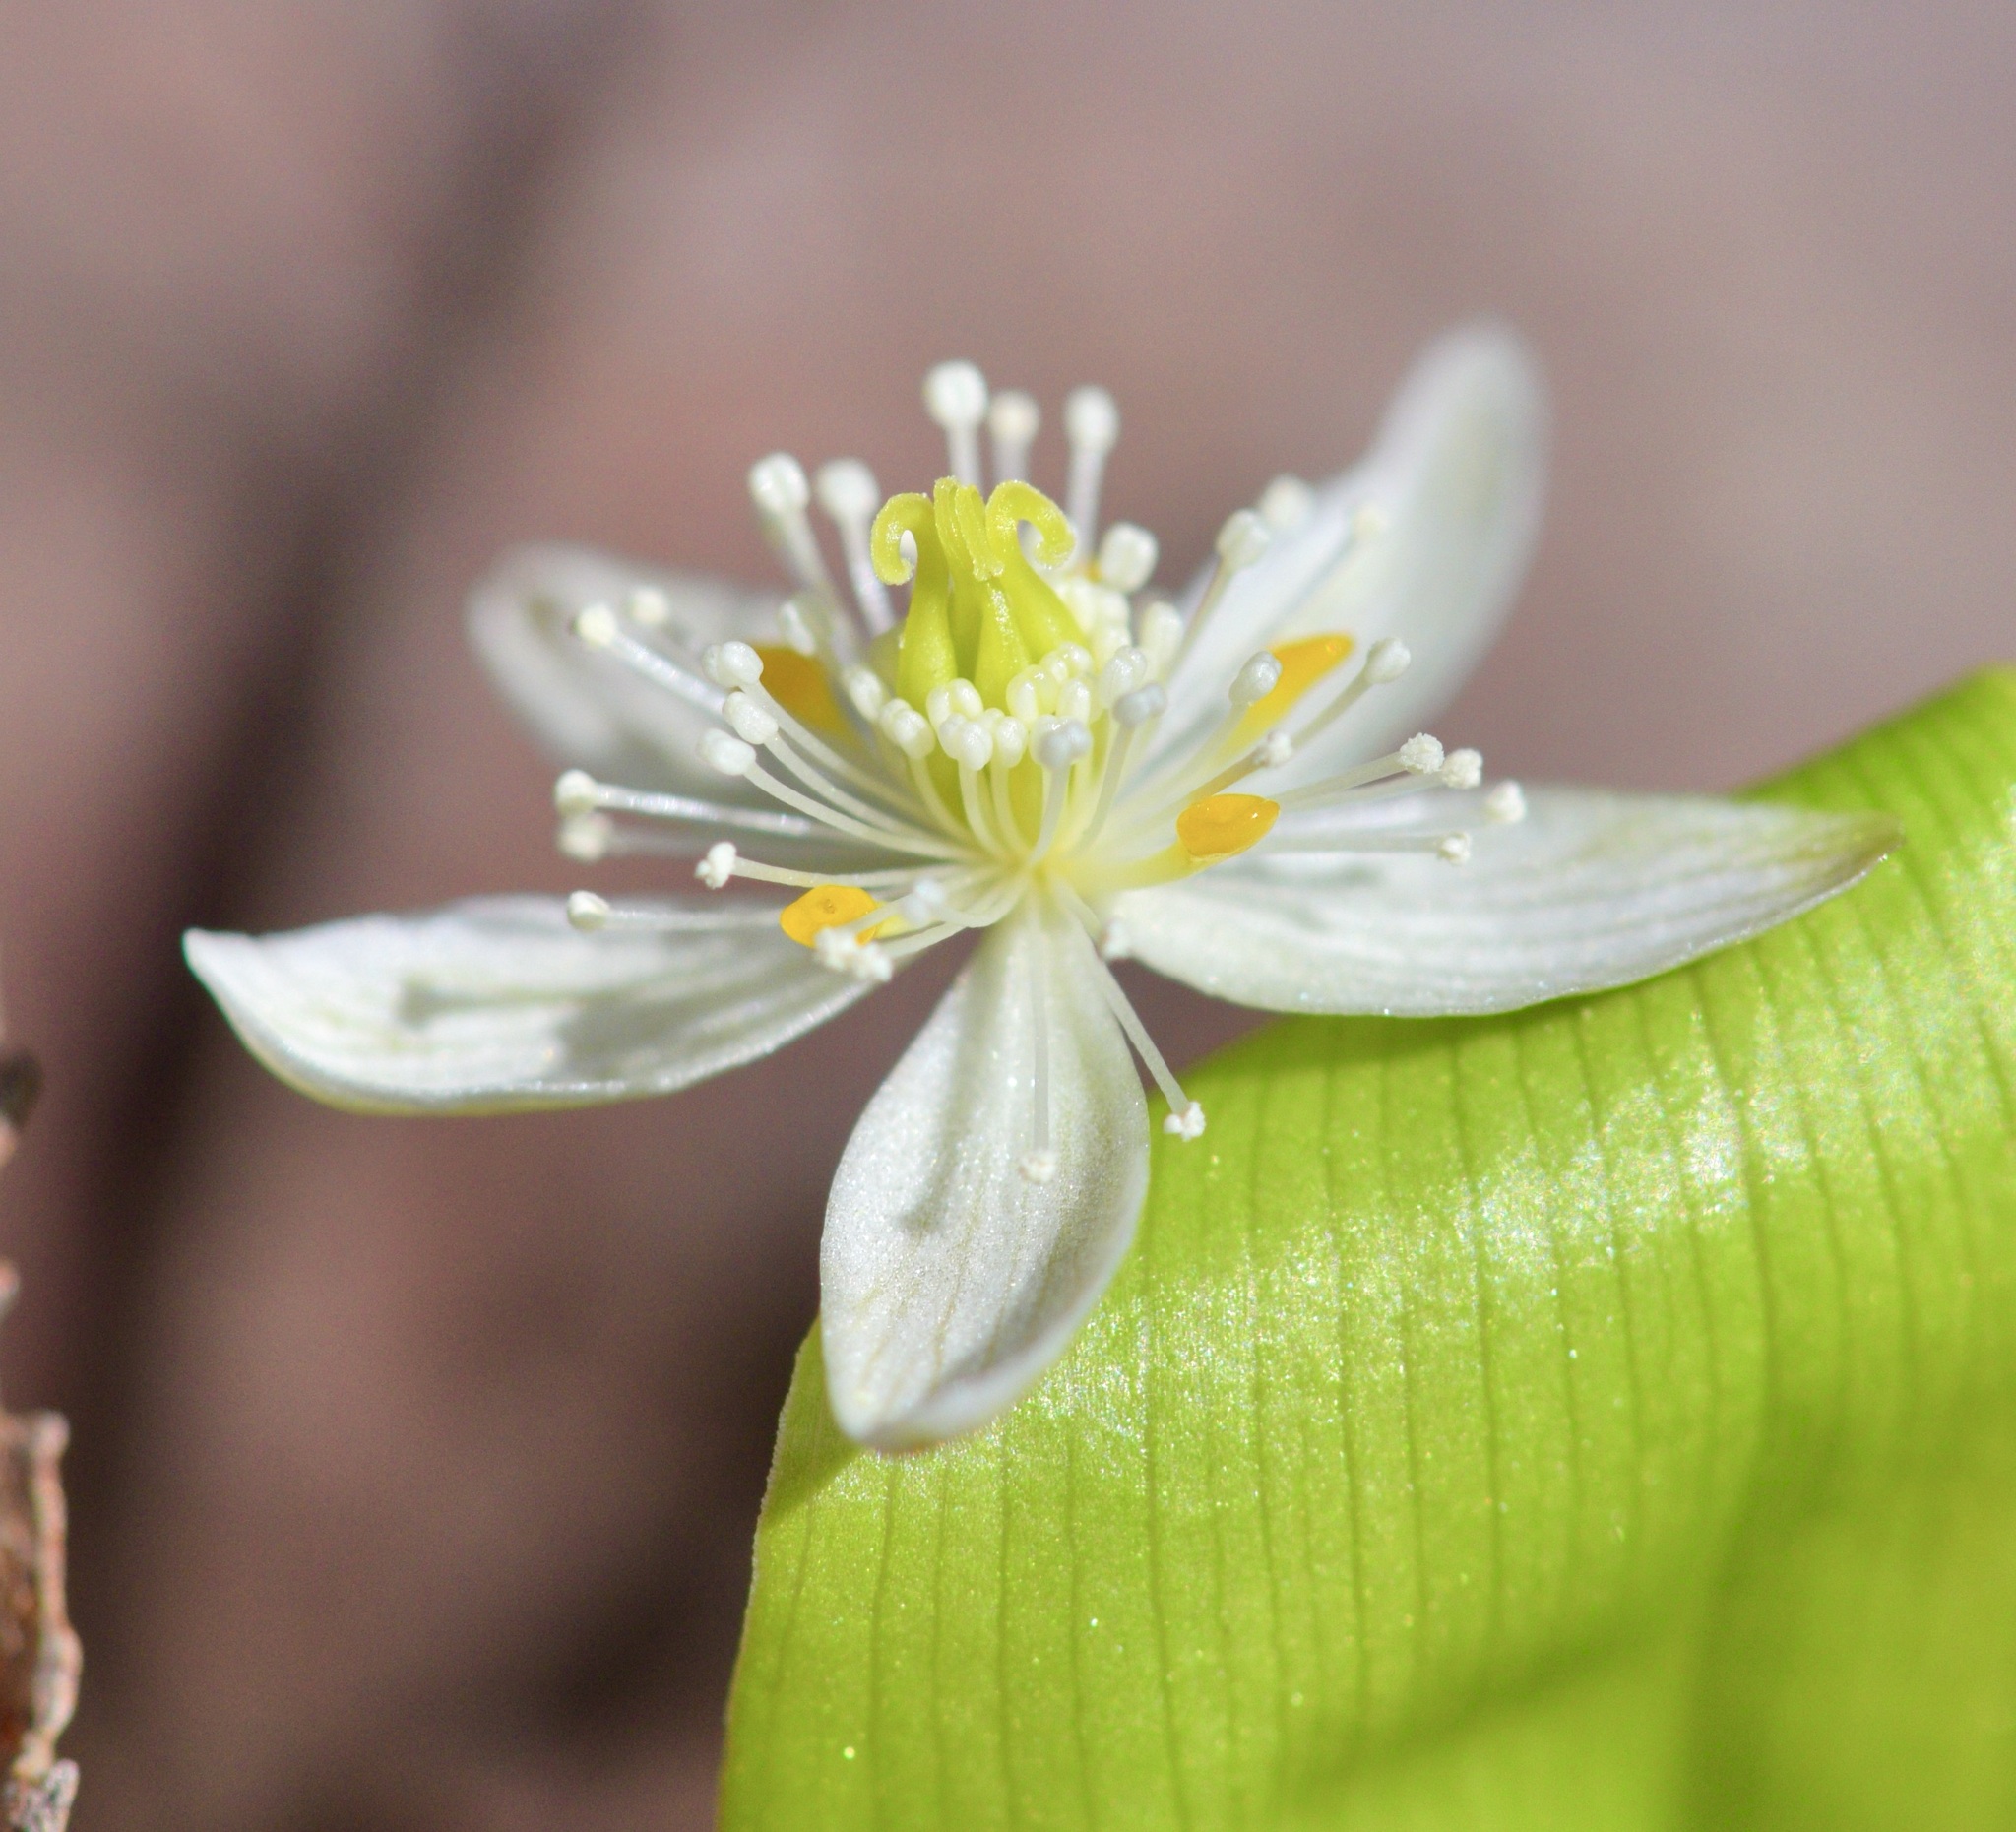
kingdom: Plantae
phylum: Tracheophyta
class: Magnoliopsida
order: Ranunculales
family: Ranunculaceae
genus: Coptis
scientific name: Coptis trifolia
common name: Canker-root
